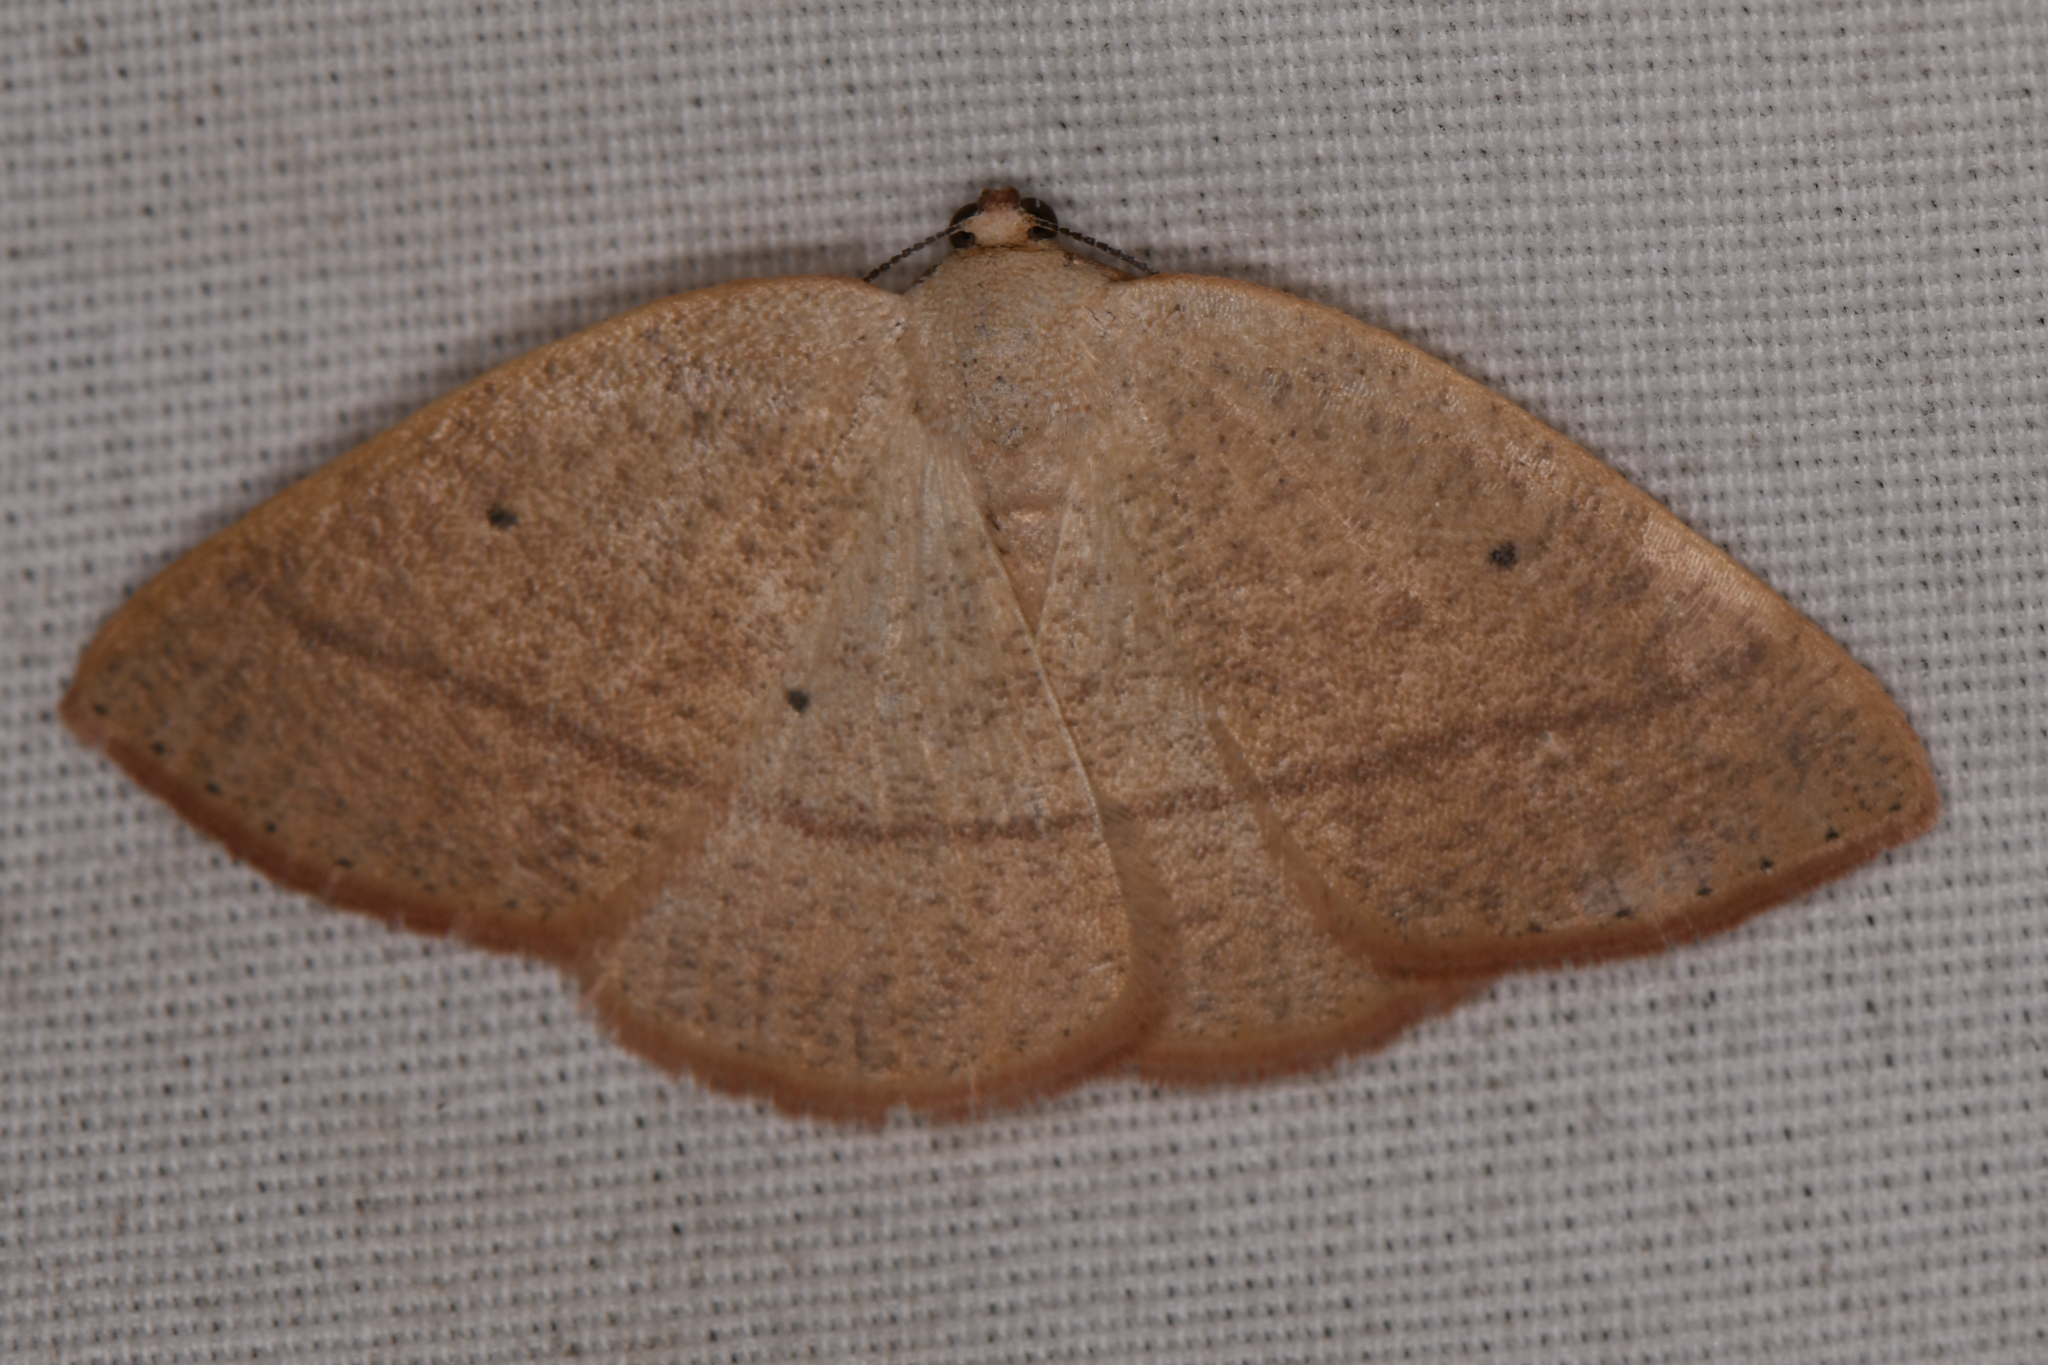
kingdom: Animalia
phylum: Arthropoda
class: Insecta
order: Lepidoptera
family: Geometridae
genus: Eudrepanulatrix
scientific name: Eudrepanulatrix rectifascia
